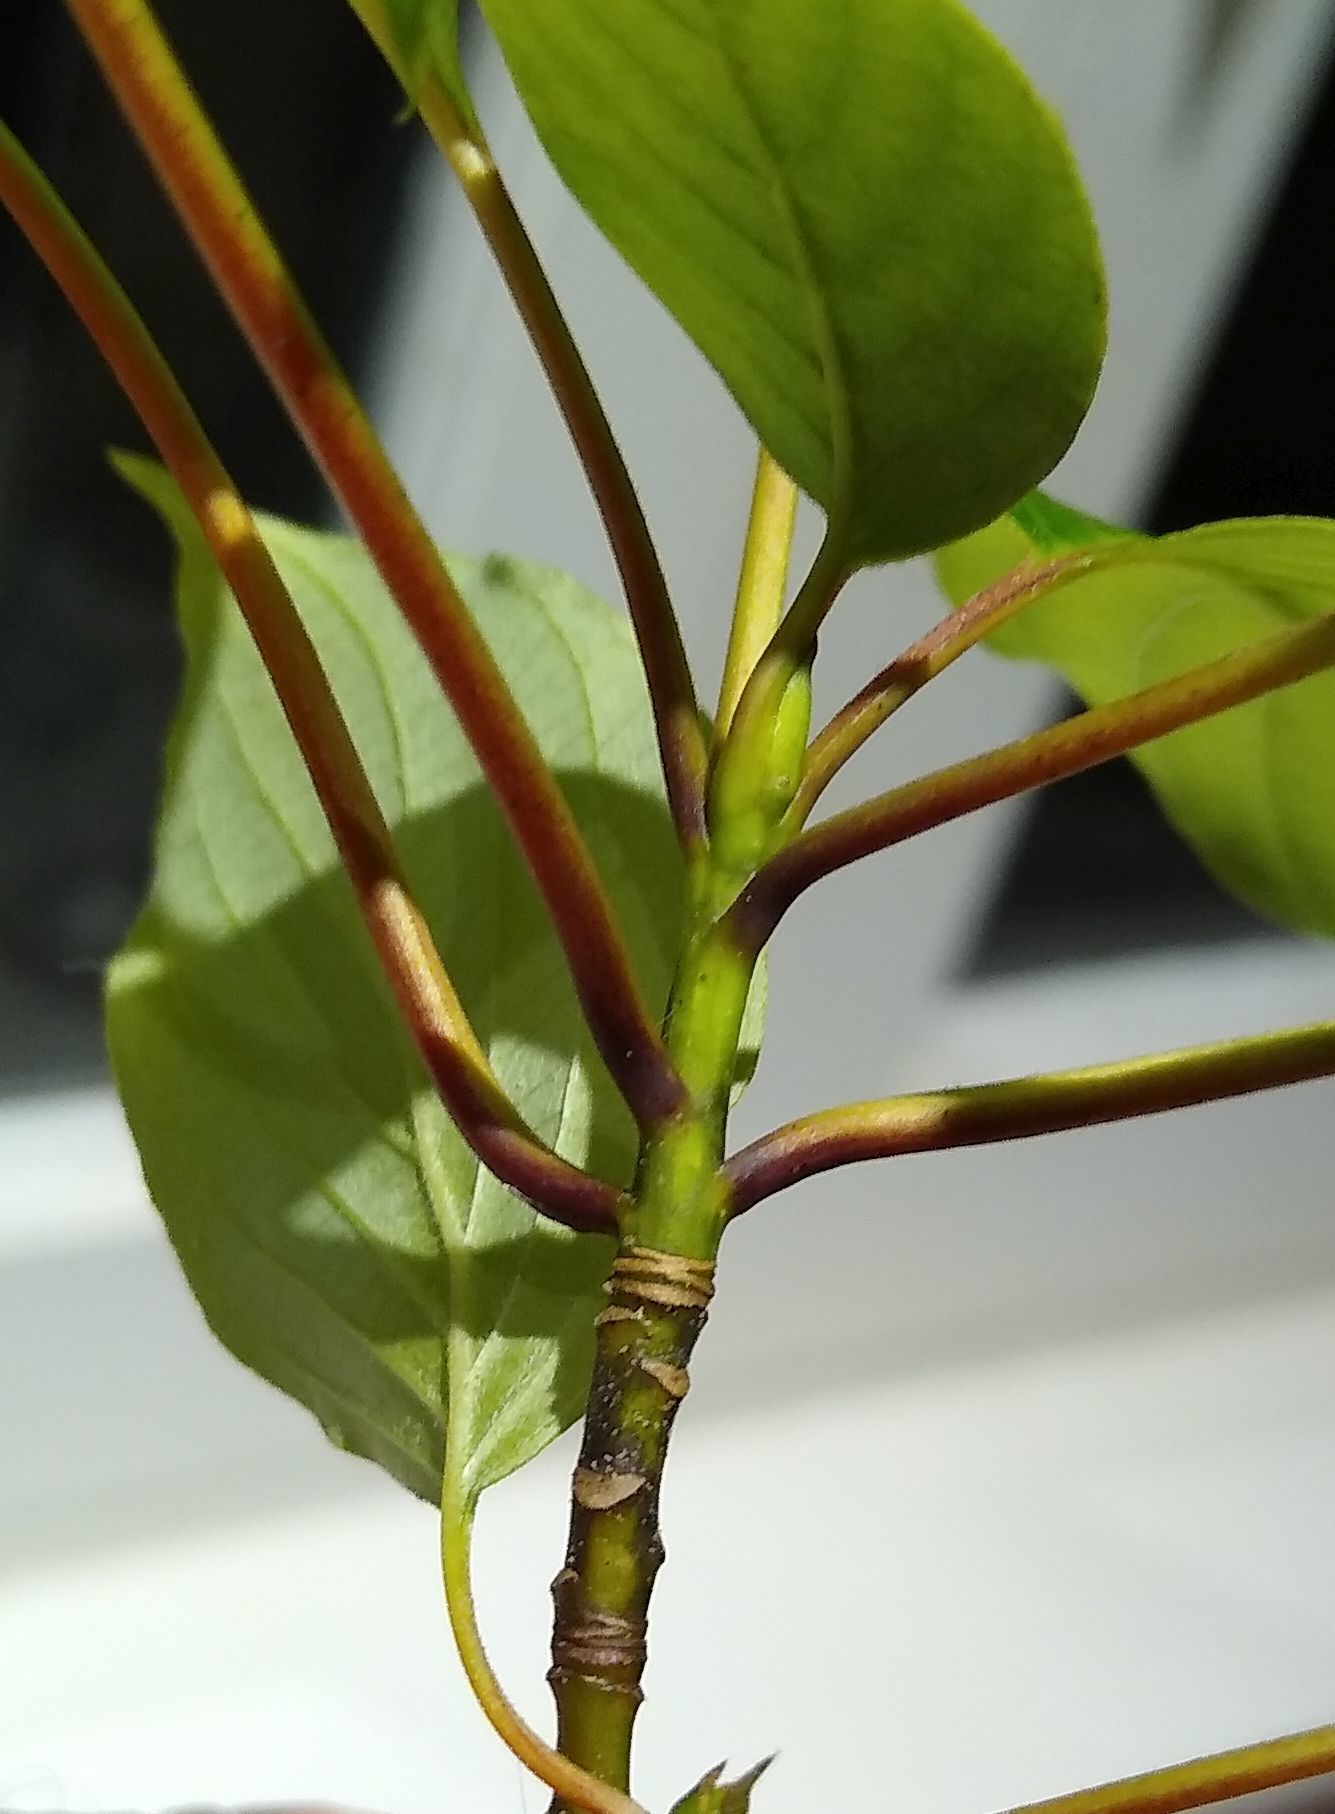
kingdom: Plantae
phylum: Tracheophyta
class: Magnoliopsida
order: Cornales
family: Cornaceae
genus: Cornus
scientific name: Cornus alternifolia
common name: Pagoda dogwood
